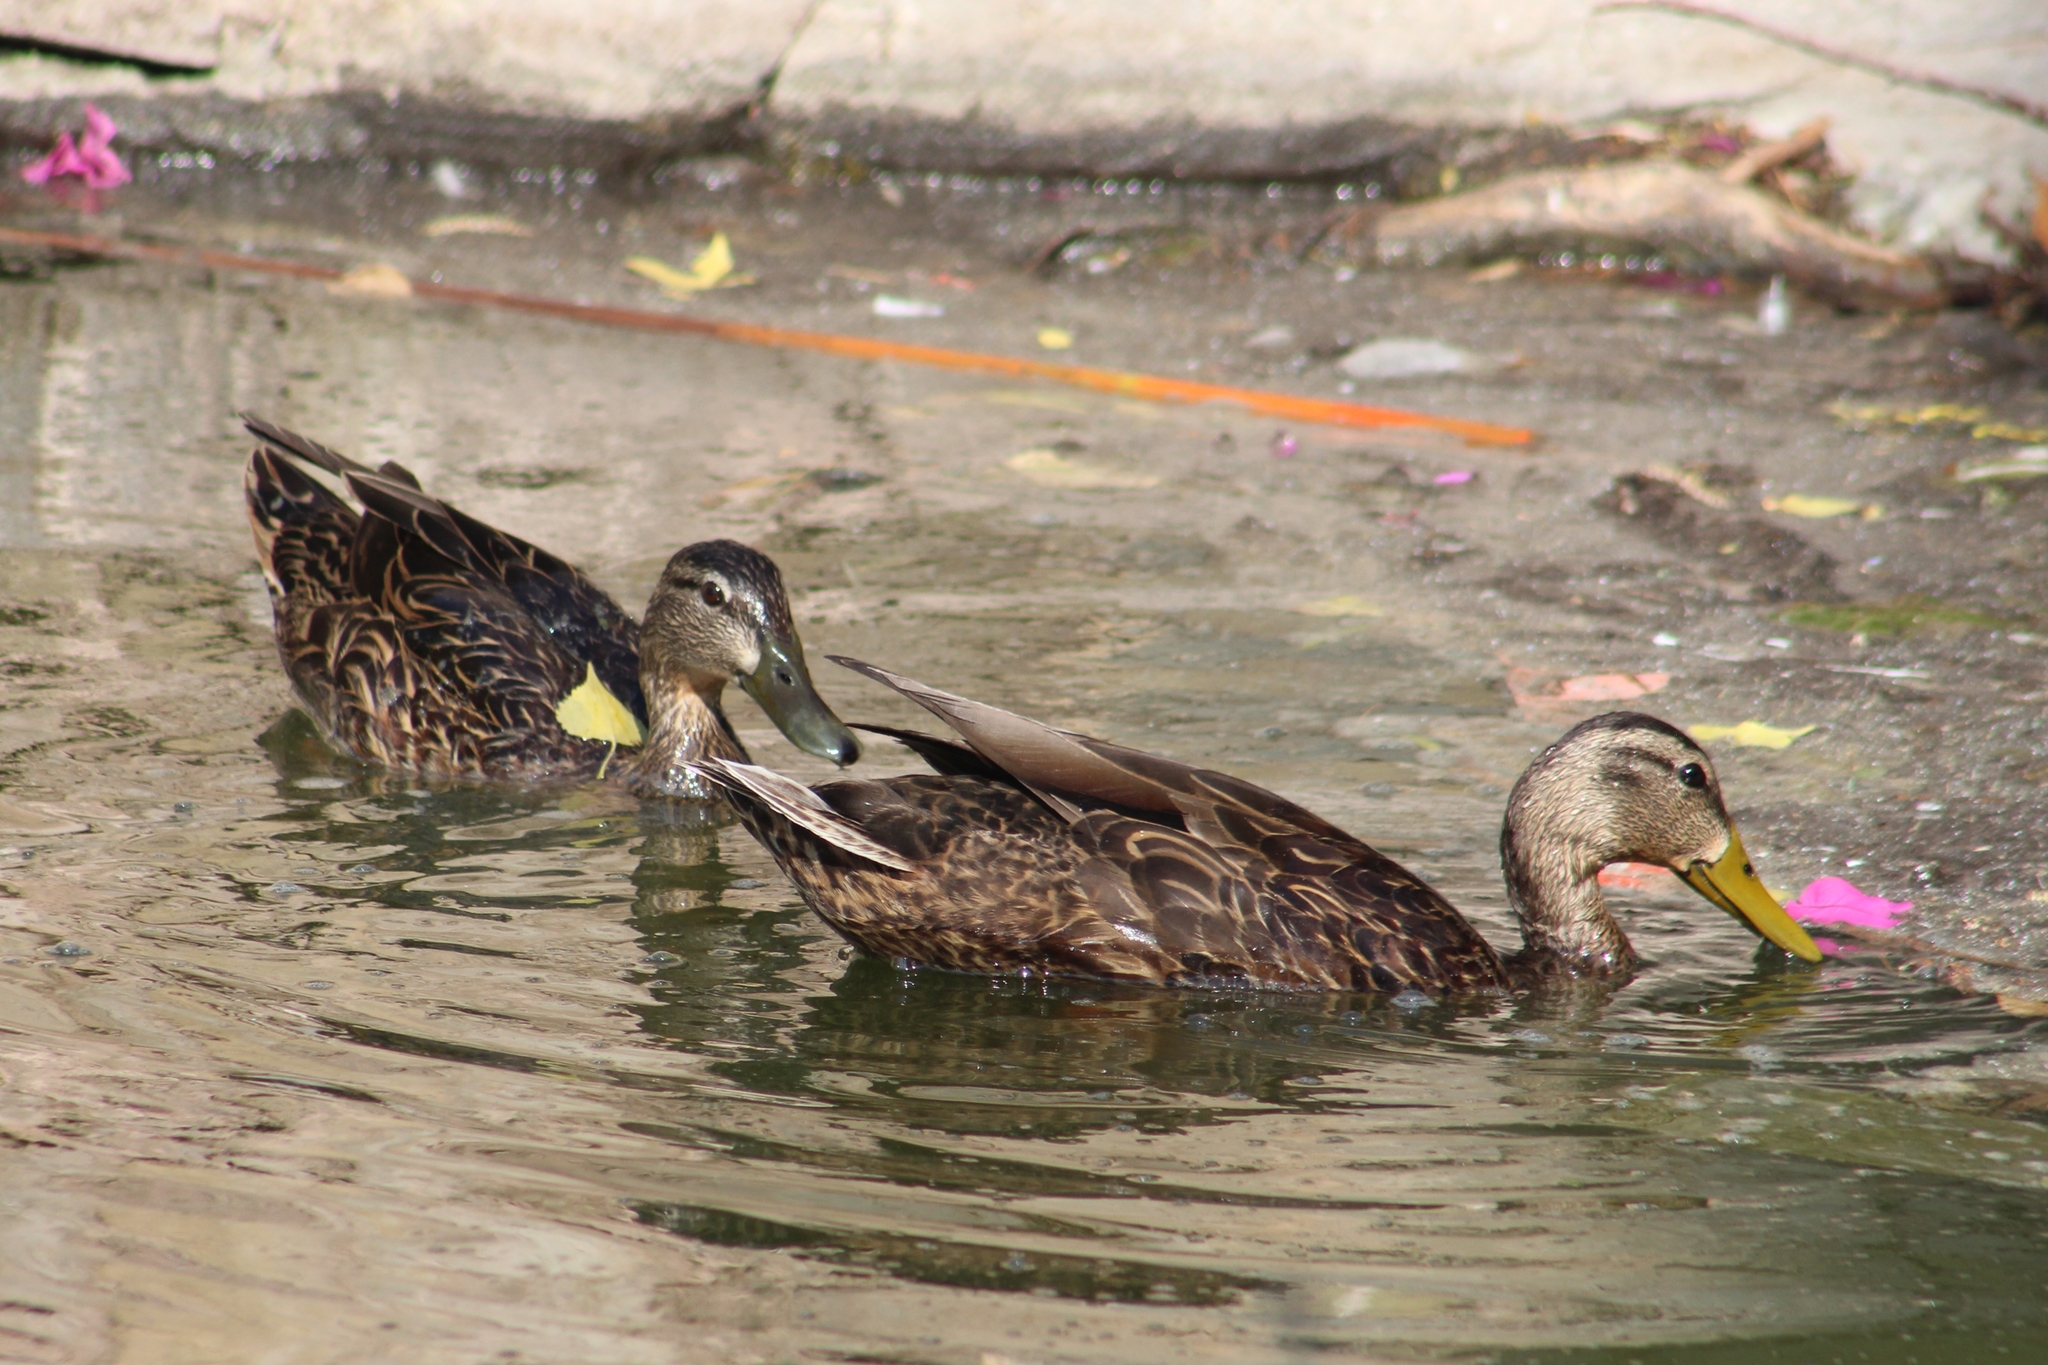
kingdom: Animalia
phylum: Chordata
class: Aves
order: Anseriformes
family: Anatidae
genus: Anas
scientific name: Anas diazi
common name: Mexican duck
